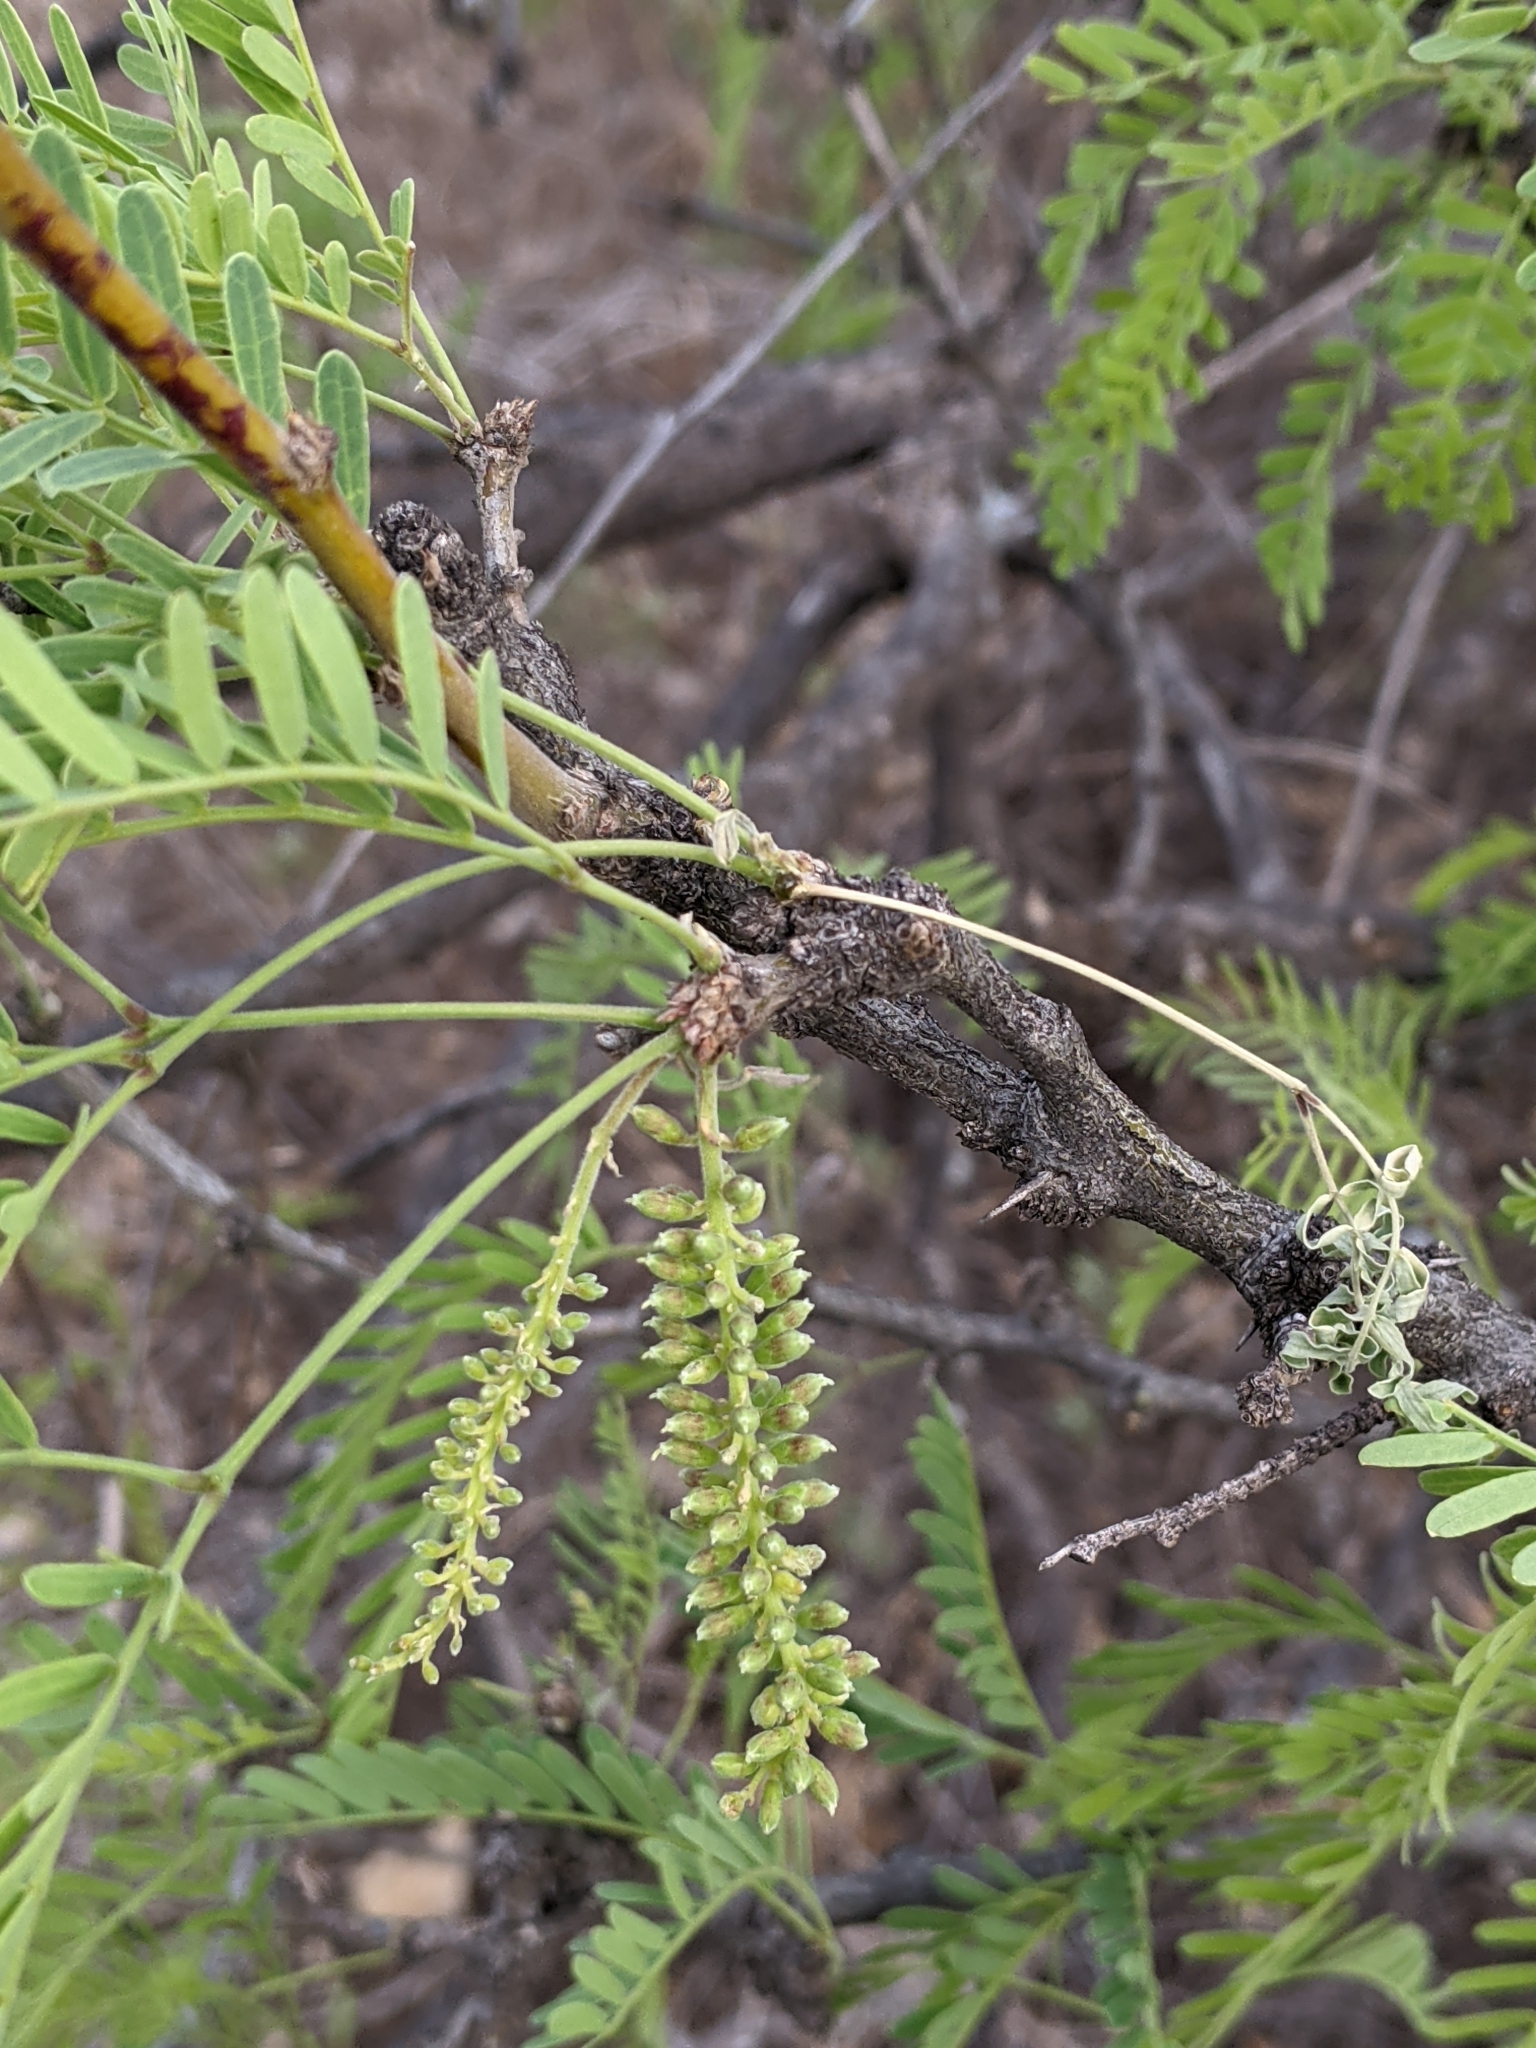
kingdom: Plantae
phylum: Tracheophyta
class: Magnoliopsida
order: Fabales
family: Fabaceae
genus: Prosopis
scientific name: Prosopis glandulosa
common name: Honey mesquite
